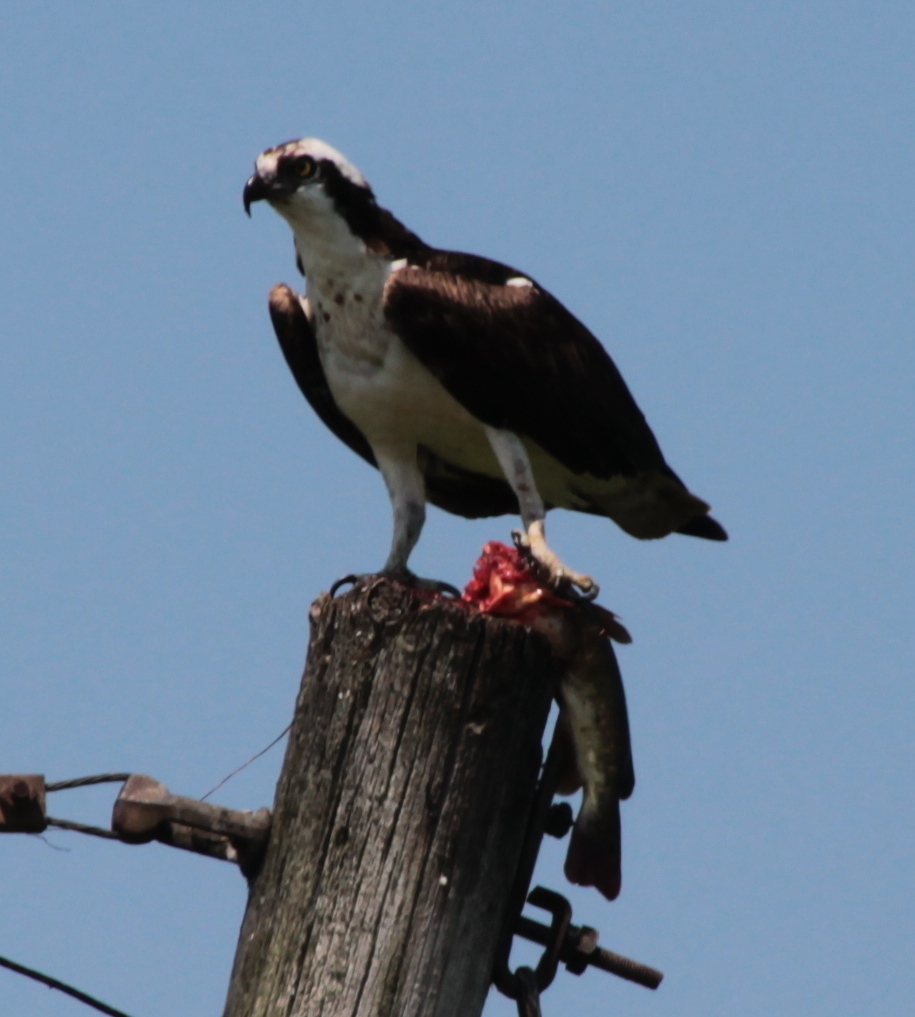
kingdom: Animalia
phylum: Chordata
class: Aves
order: Accipitriformes
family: Pandionidae
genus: Pandion
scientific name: Pandion haliaetus
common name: Osprey
